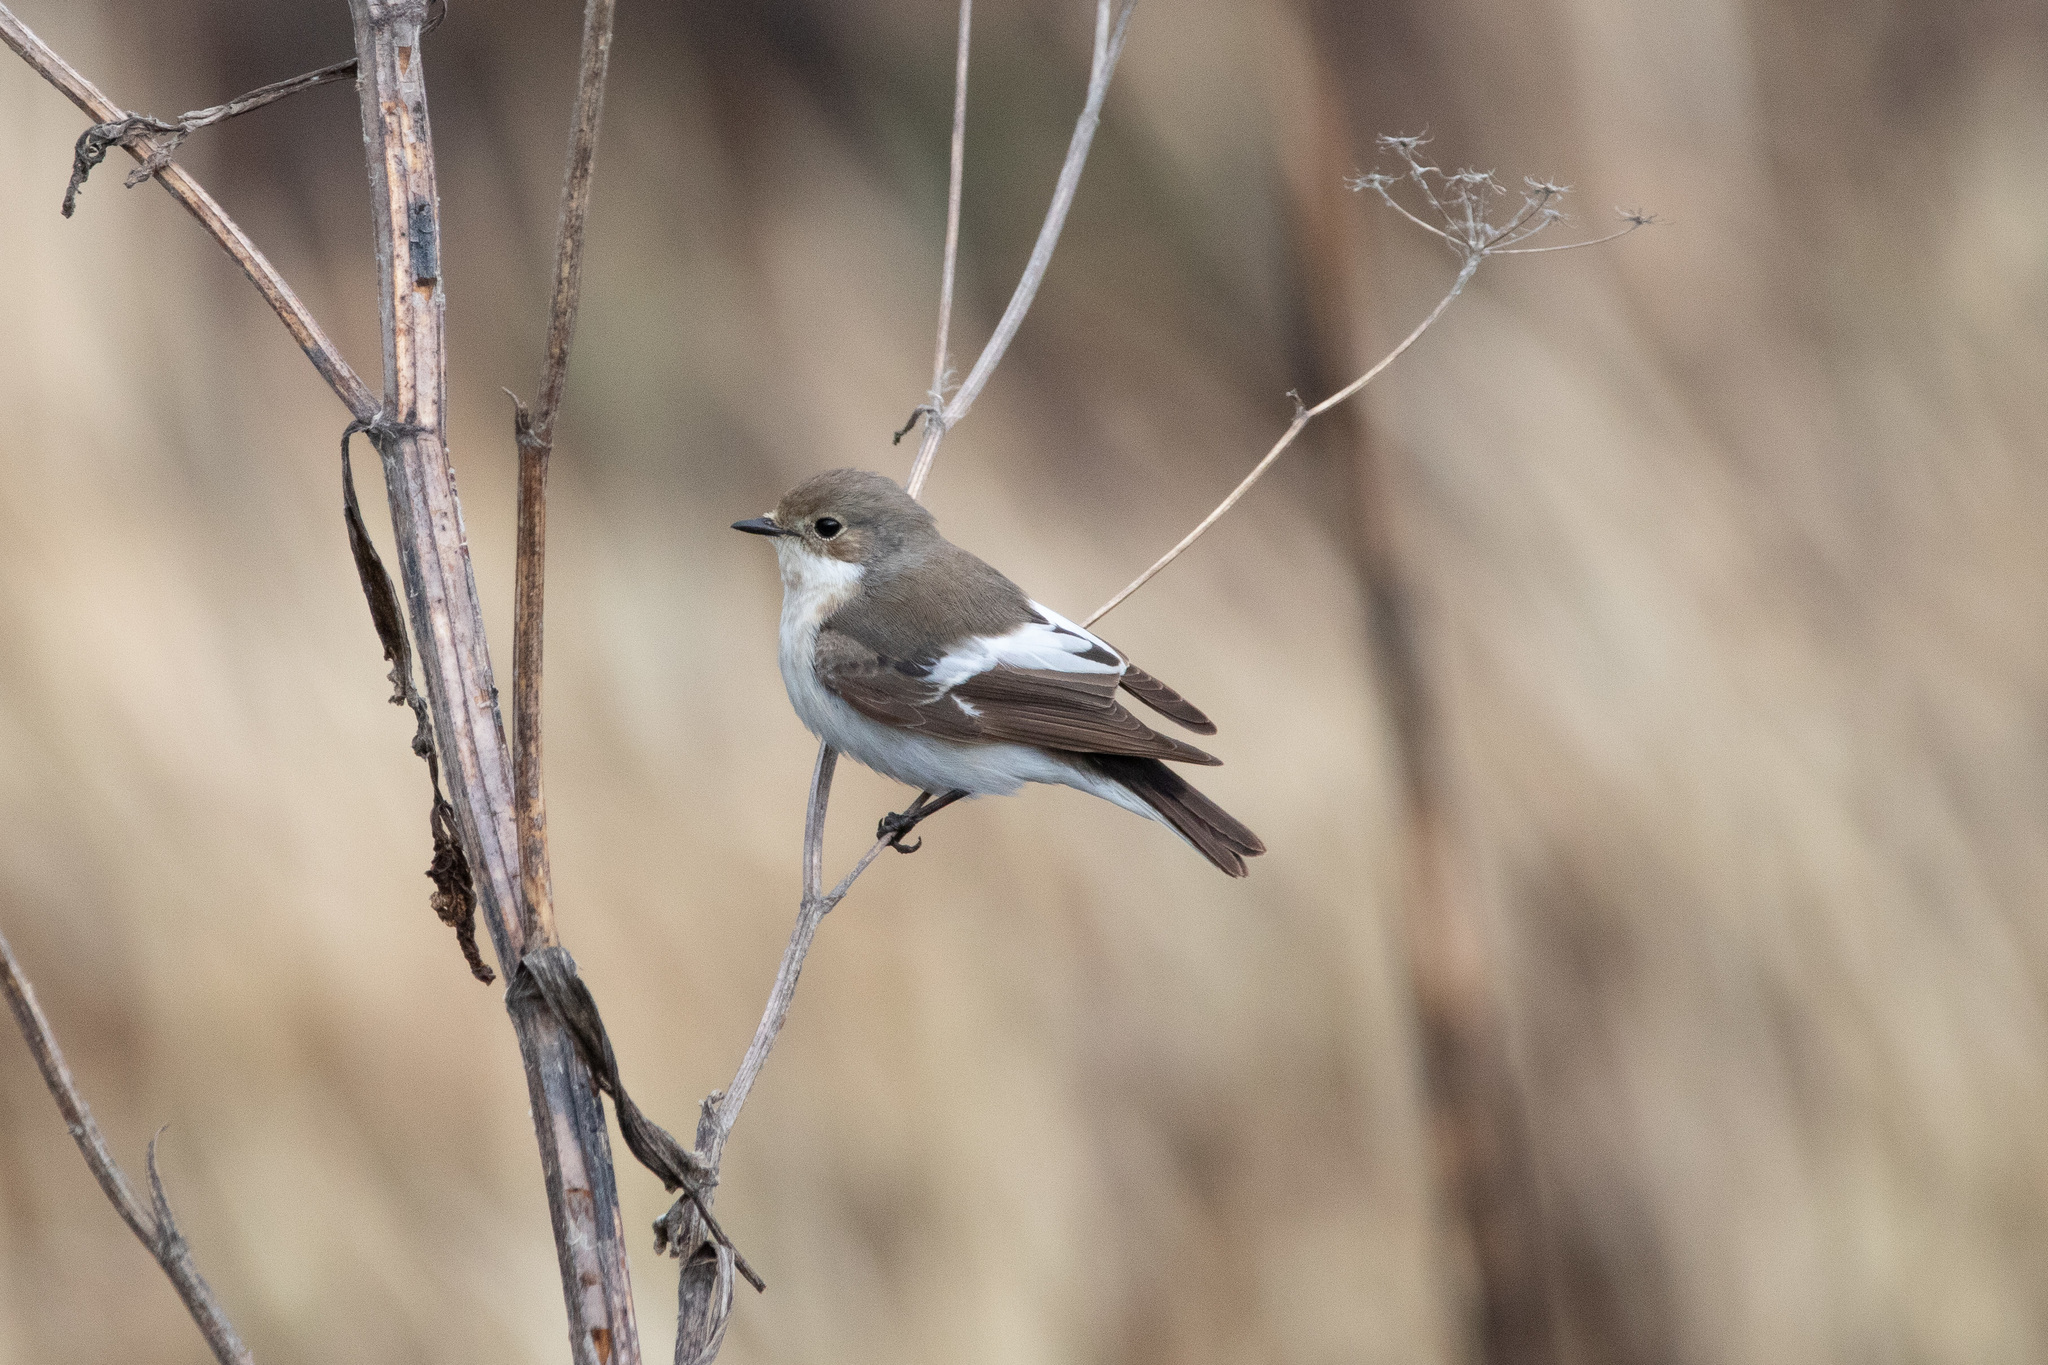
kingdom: Animalia
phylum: Chordata
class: Aves
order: Passeriformes
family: Muscicapidae
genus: Ficedula
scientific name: Ficedula hypoleuca
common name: European pied flycatcher
